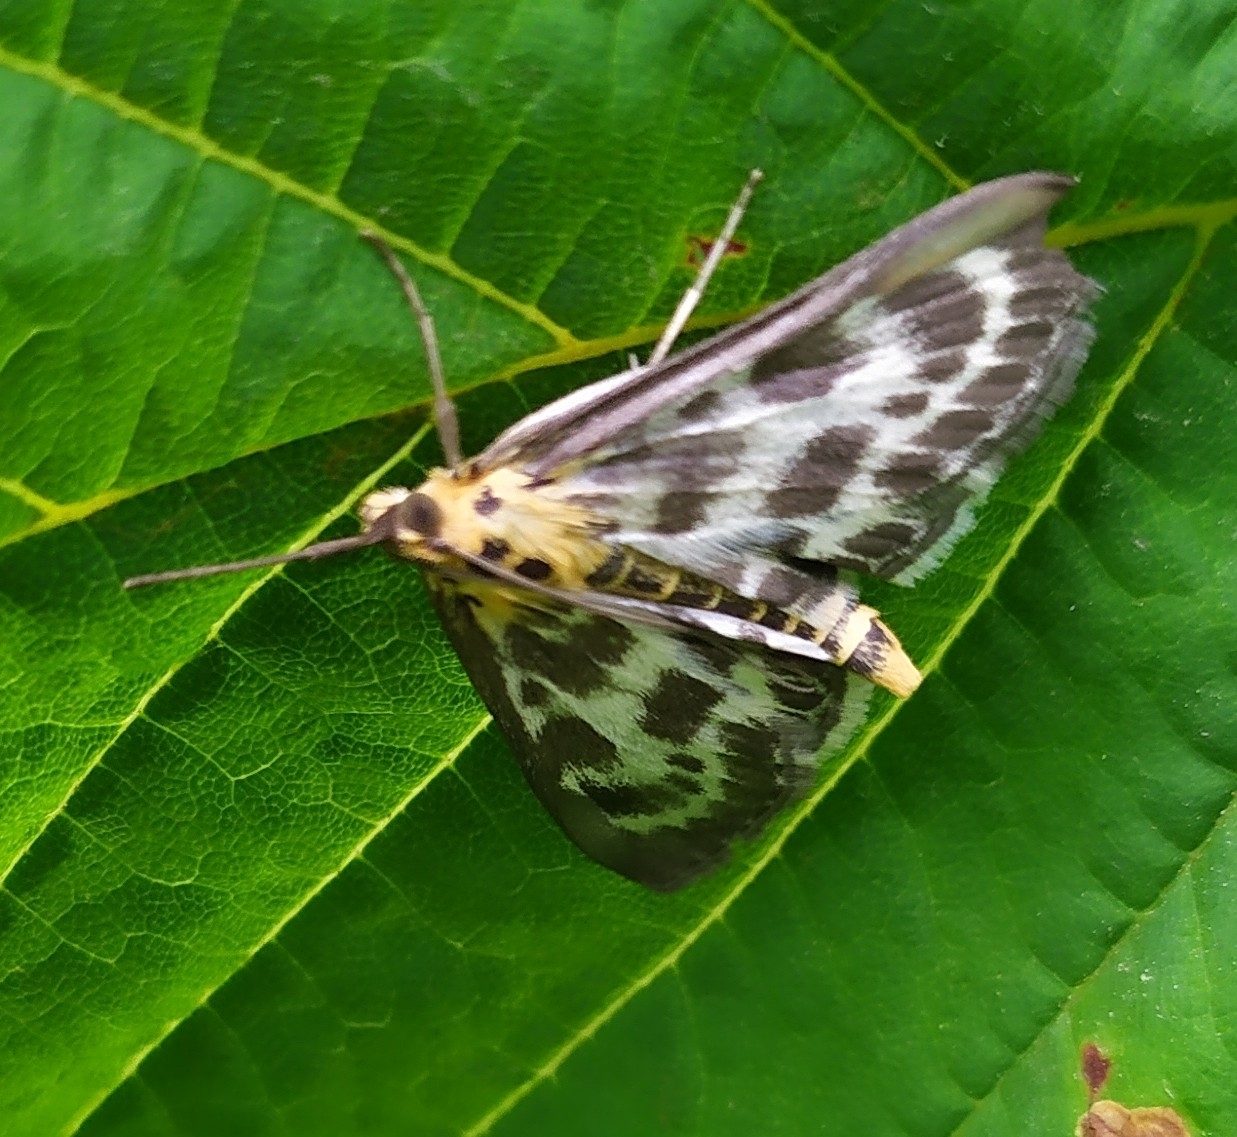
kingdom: Animalia
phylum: Arthropoda
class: Insecta
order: Lepidoptera
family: Crambidae
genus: Anania
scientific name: Anania hortulata
